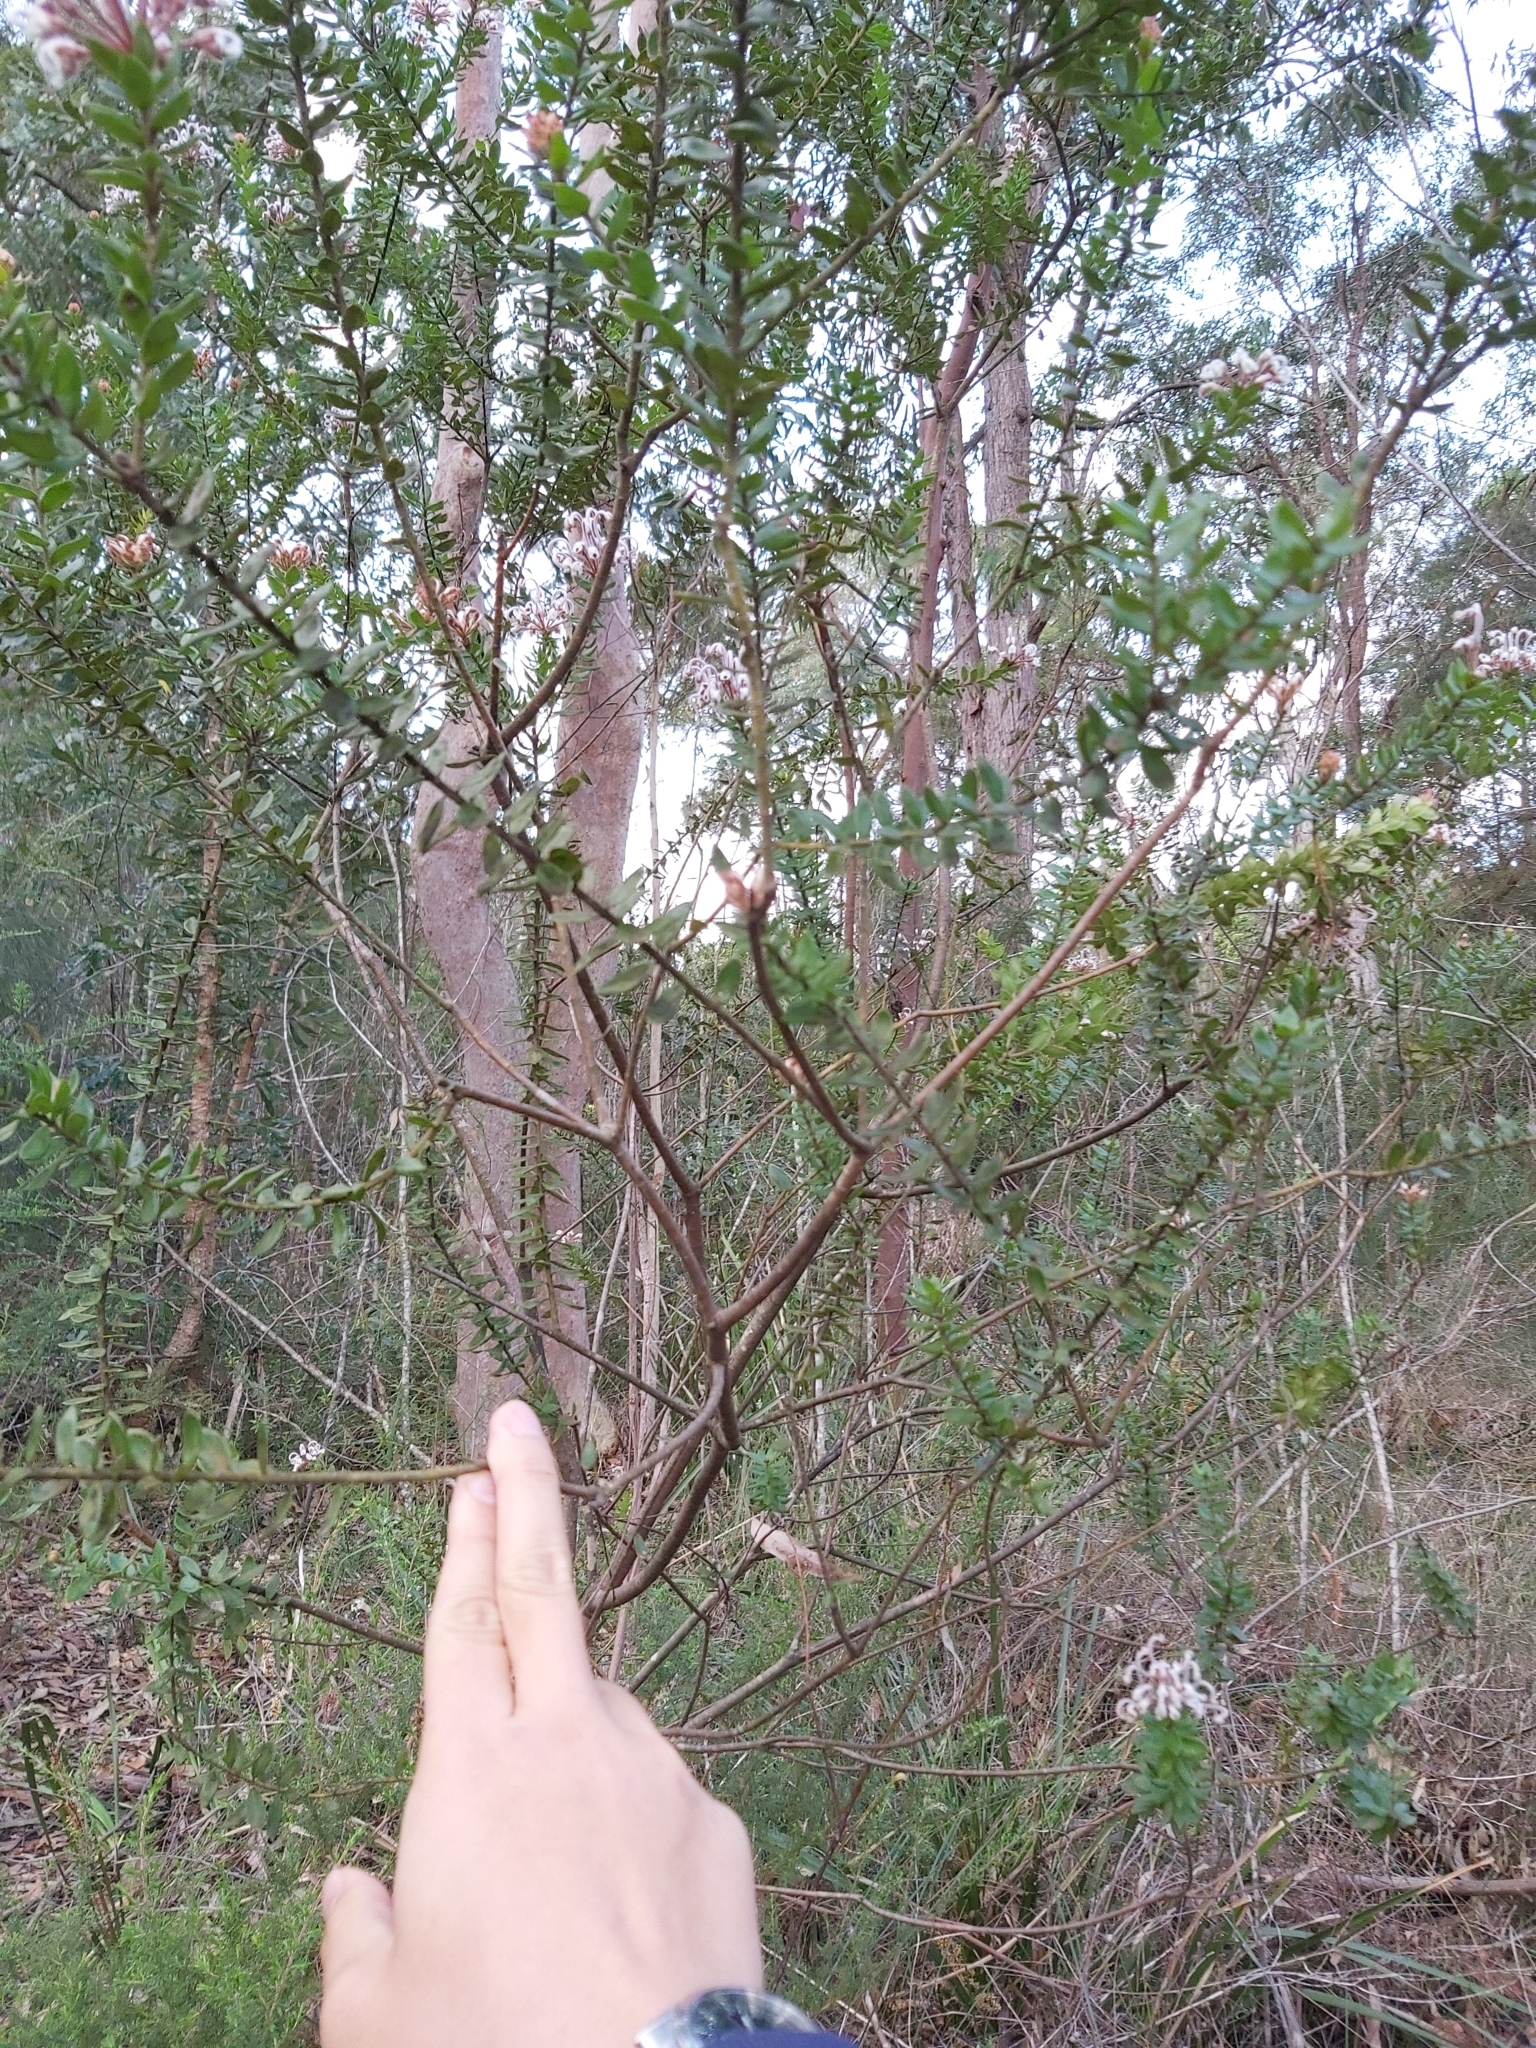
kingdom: Plantae
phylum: Tracheophyta
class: Magnoliopsida
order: Proteales
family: Proteaceae
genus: Grevillea
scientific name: Grevillea buxifolia
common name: Grey spiderflower
